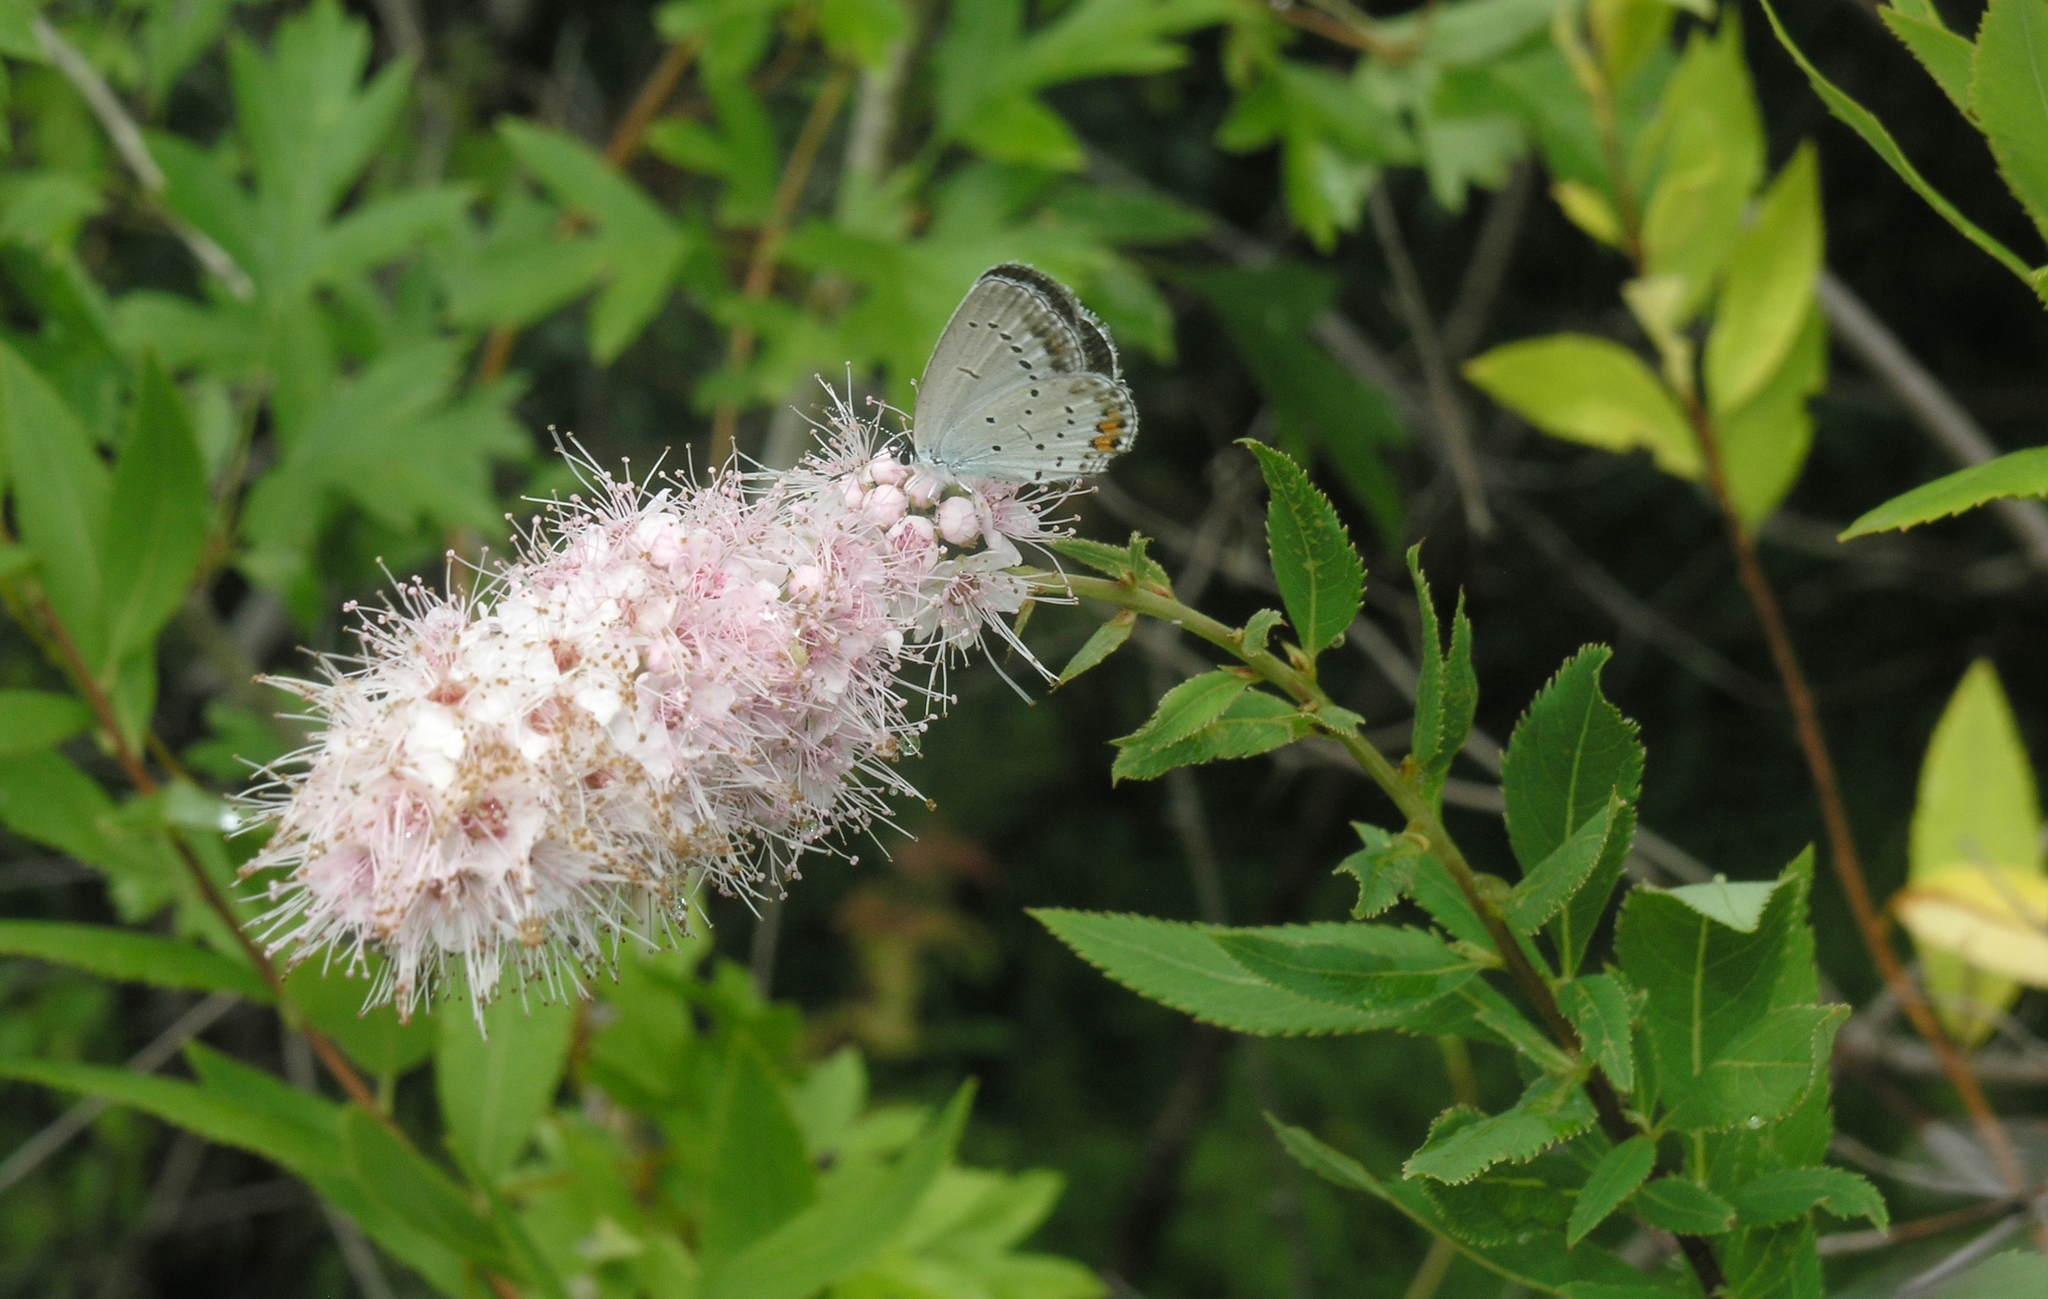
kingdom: Plantae
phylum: Tracheophyta
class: Magnoliopsida
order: Rosales
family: Rosaceae
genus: Spiraea
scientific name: Spiraea salicifolia
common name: Bridewort
